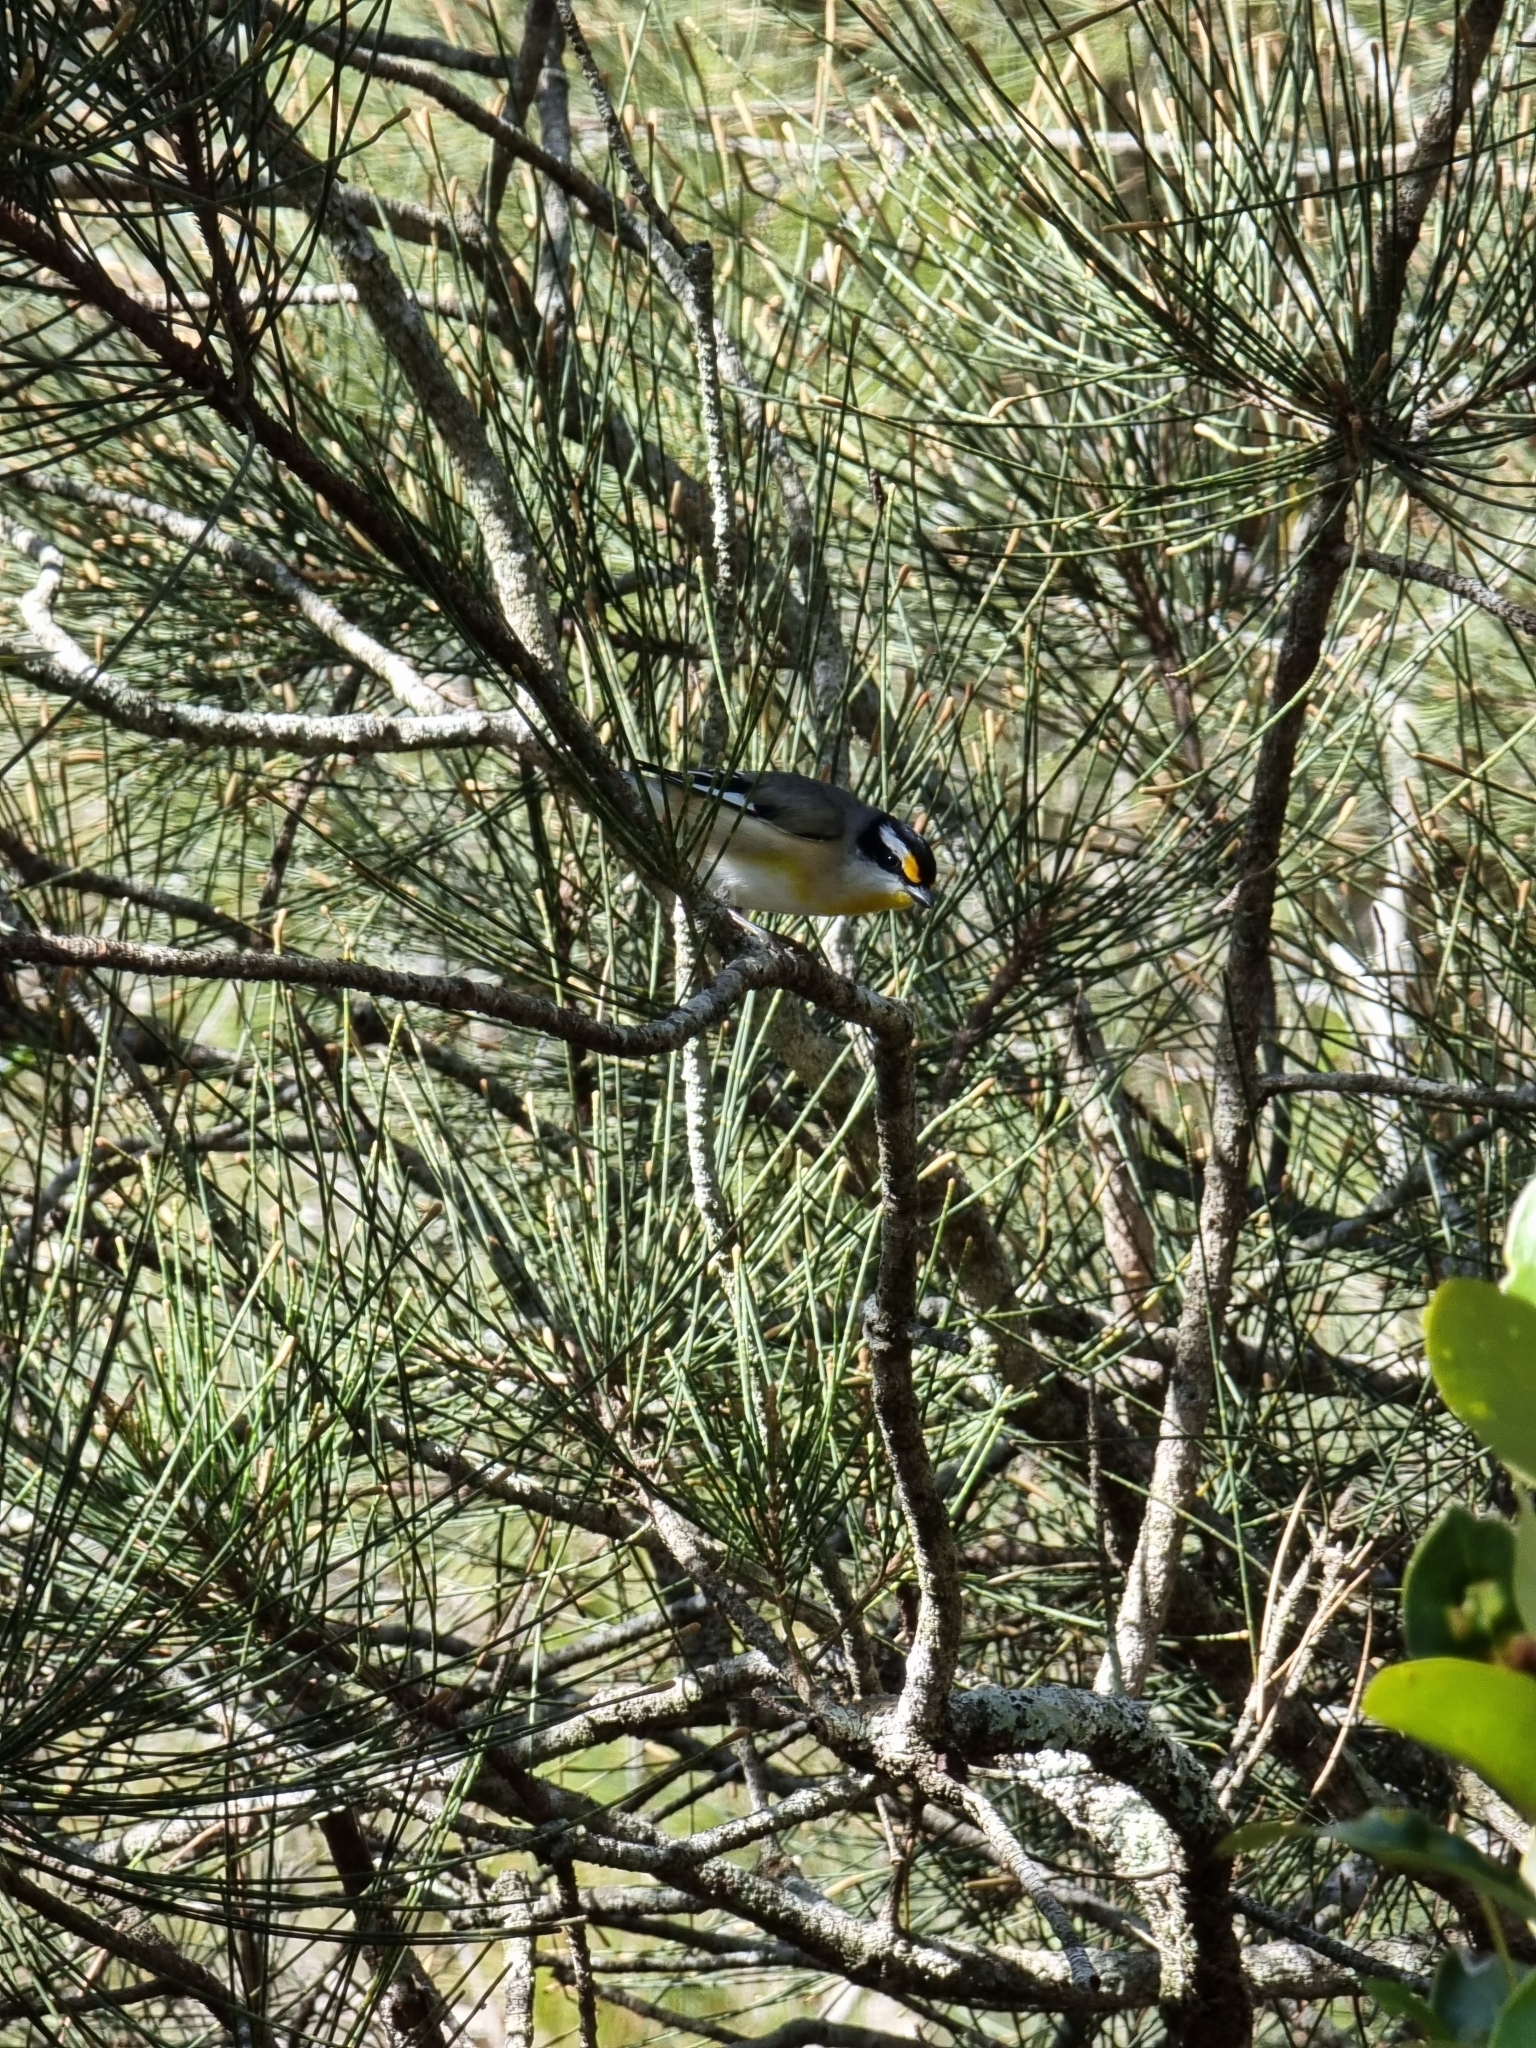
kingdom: Animalia
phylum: Chordata
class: Aves
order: Passeriformes
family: Pardalotidae
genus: Pardalotus
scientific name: Pardalotus striatus
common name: Striated pardalote
